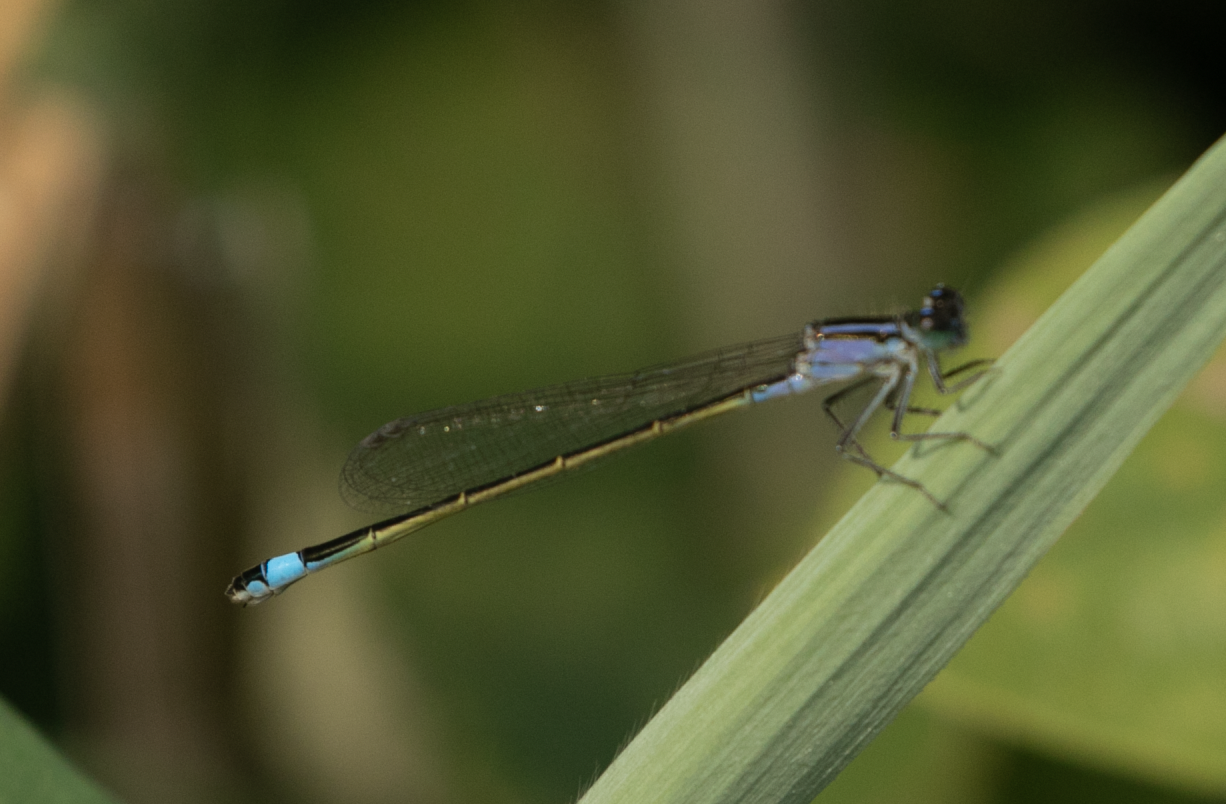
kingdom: Animalia
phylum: Arthropoda
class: Insecta
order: Odonata
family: Coenagrionidae
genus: Ischnura
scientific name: Ischnura elegans
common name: Blue-tailed damselfly
